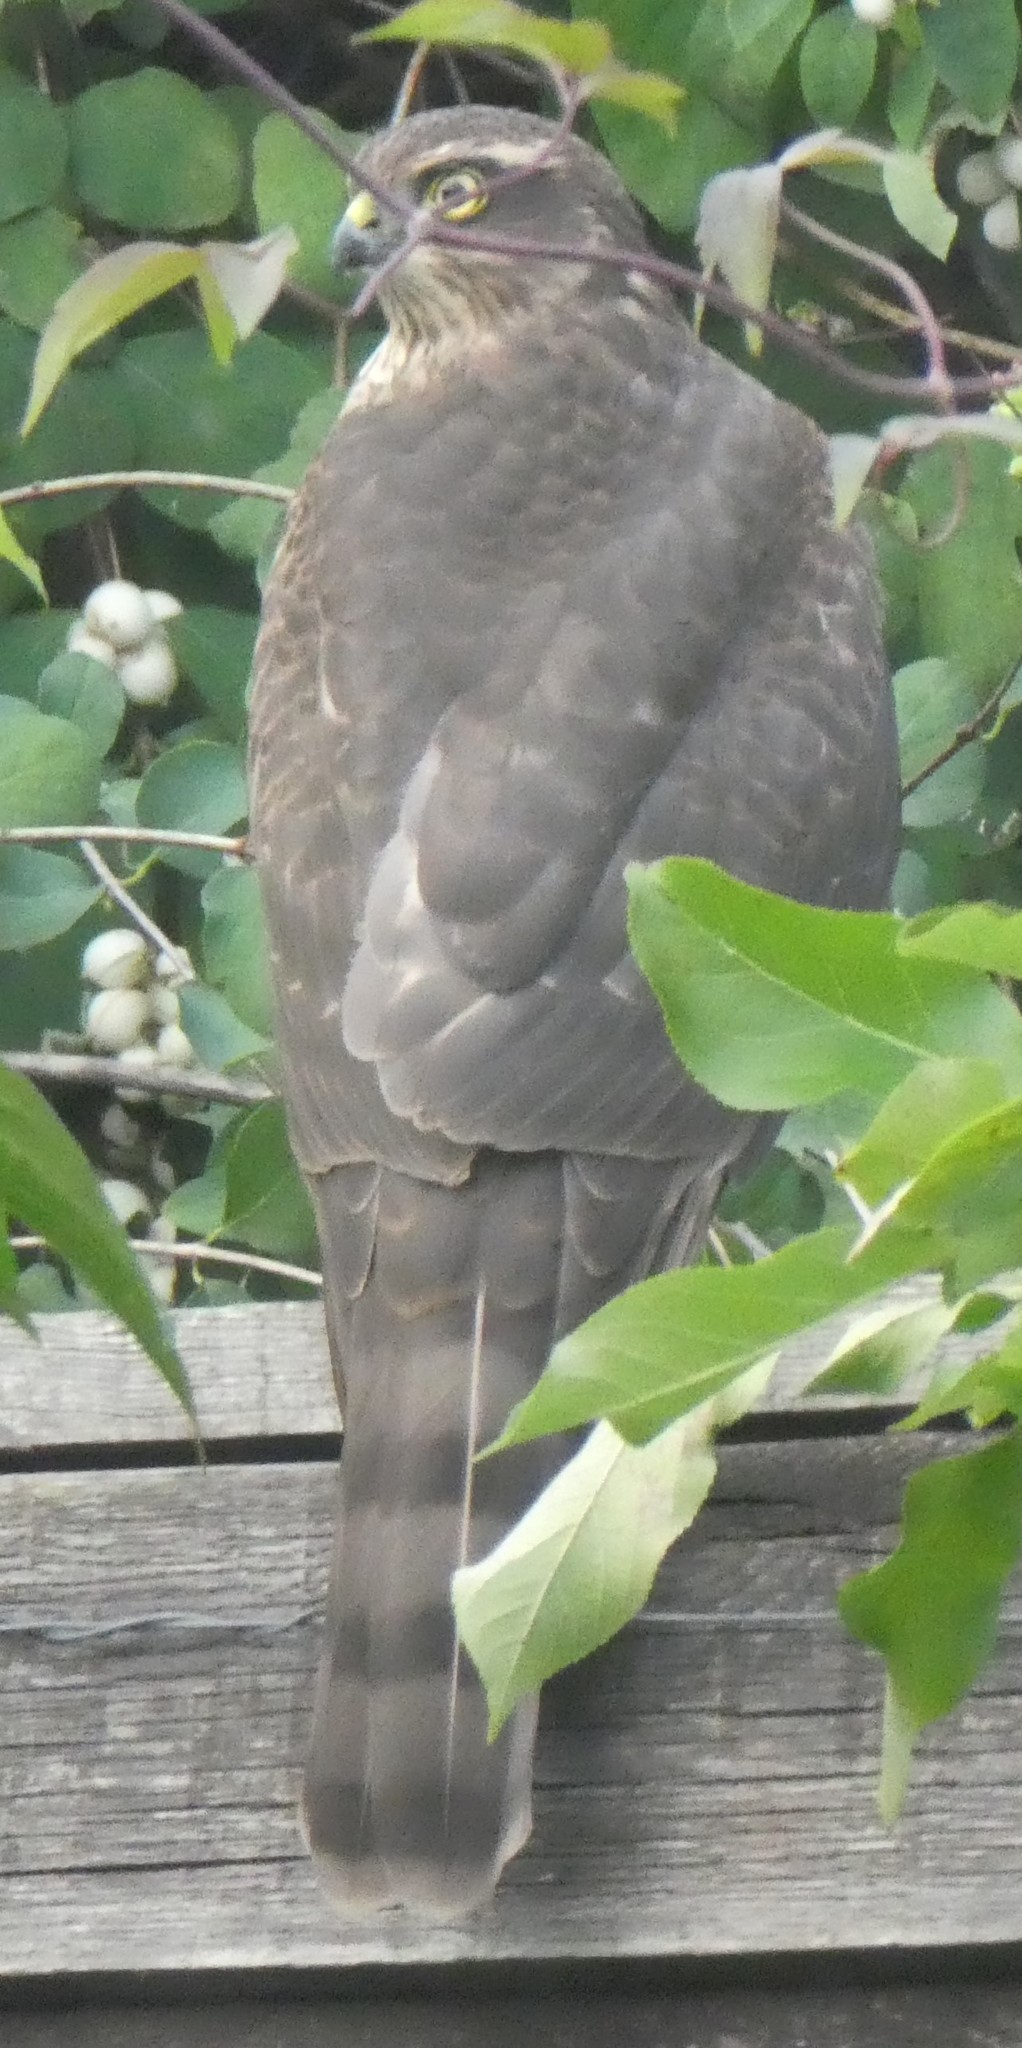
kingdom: Animalia
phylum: Chordata
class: Aves
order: Accipitriformes
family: Accipitridae
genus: Accipiter
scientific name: Accipiter nisus
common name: Eurasian sparrowhawk
